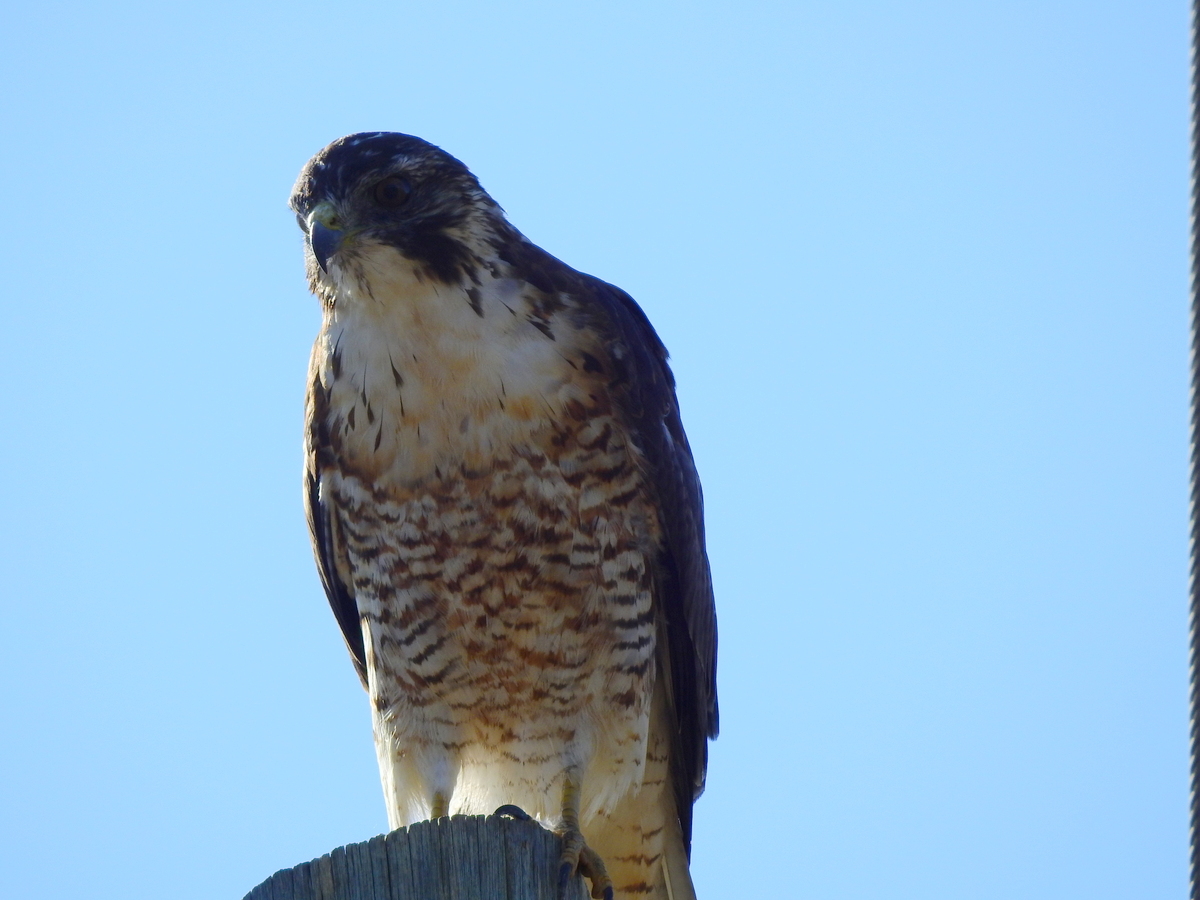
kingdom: Animalia
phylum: Chordata
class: Aves
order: Accipitriformes
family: Accipitridae
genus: Buteo
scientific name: Buteo polyosoma
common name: Variable hawk
